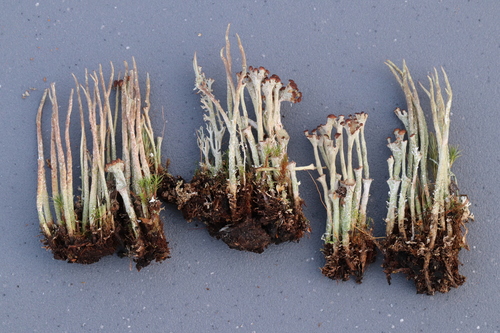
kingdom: Fungi
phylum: Ascomycota
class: Lecanoromycetes
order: Lecanorales
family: Cladoniaceae
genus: Cladonia
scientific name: Cladonia cornuta
